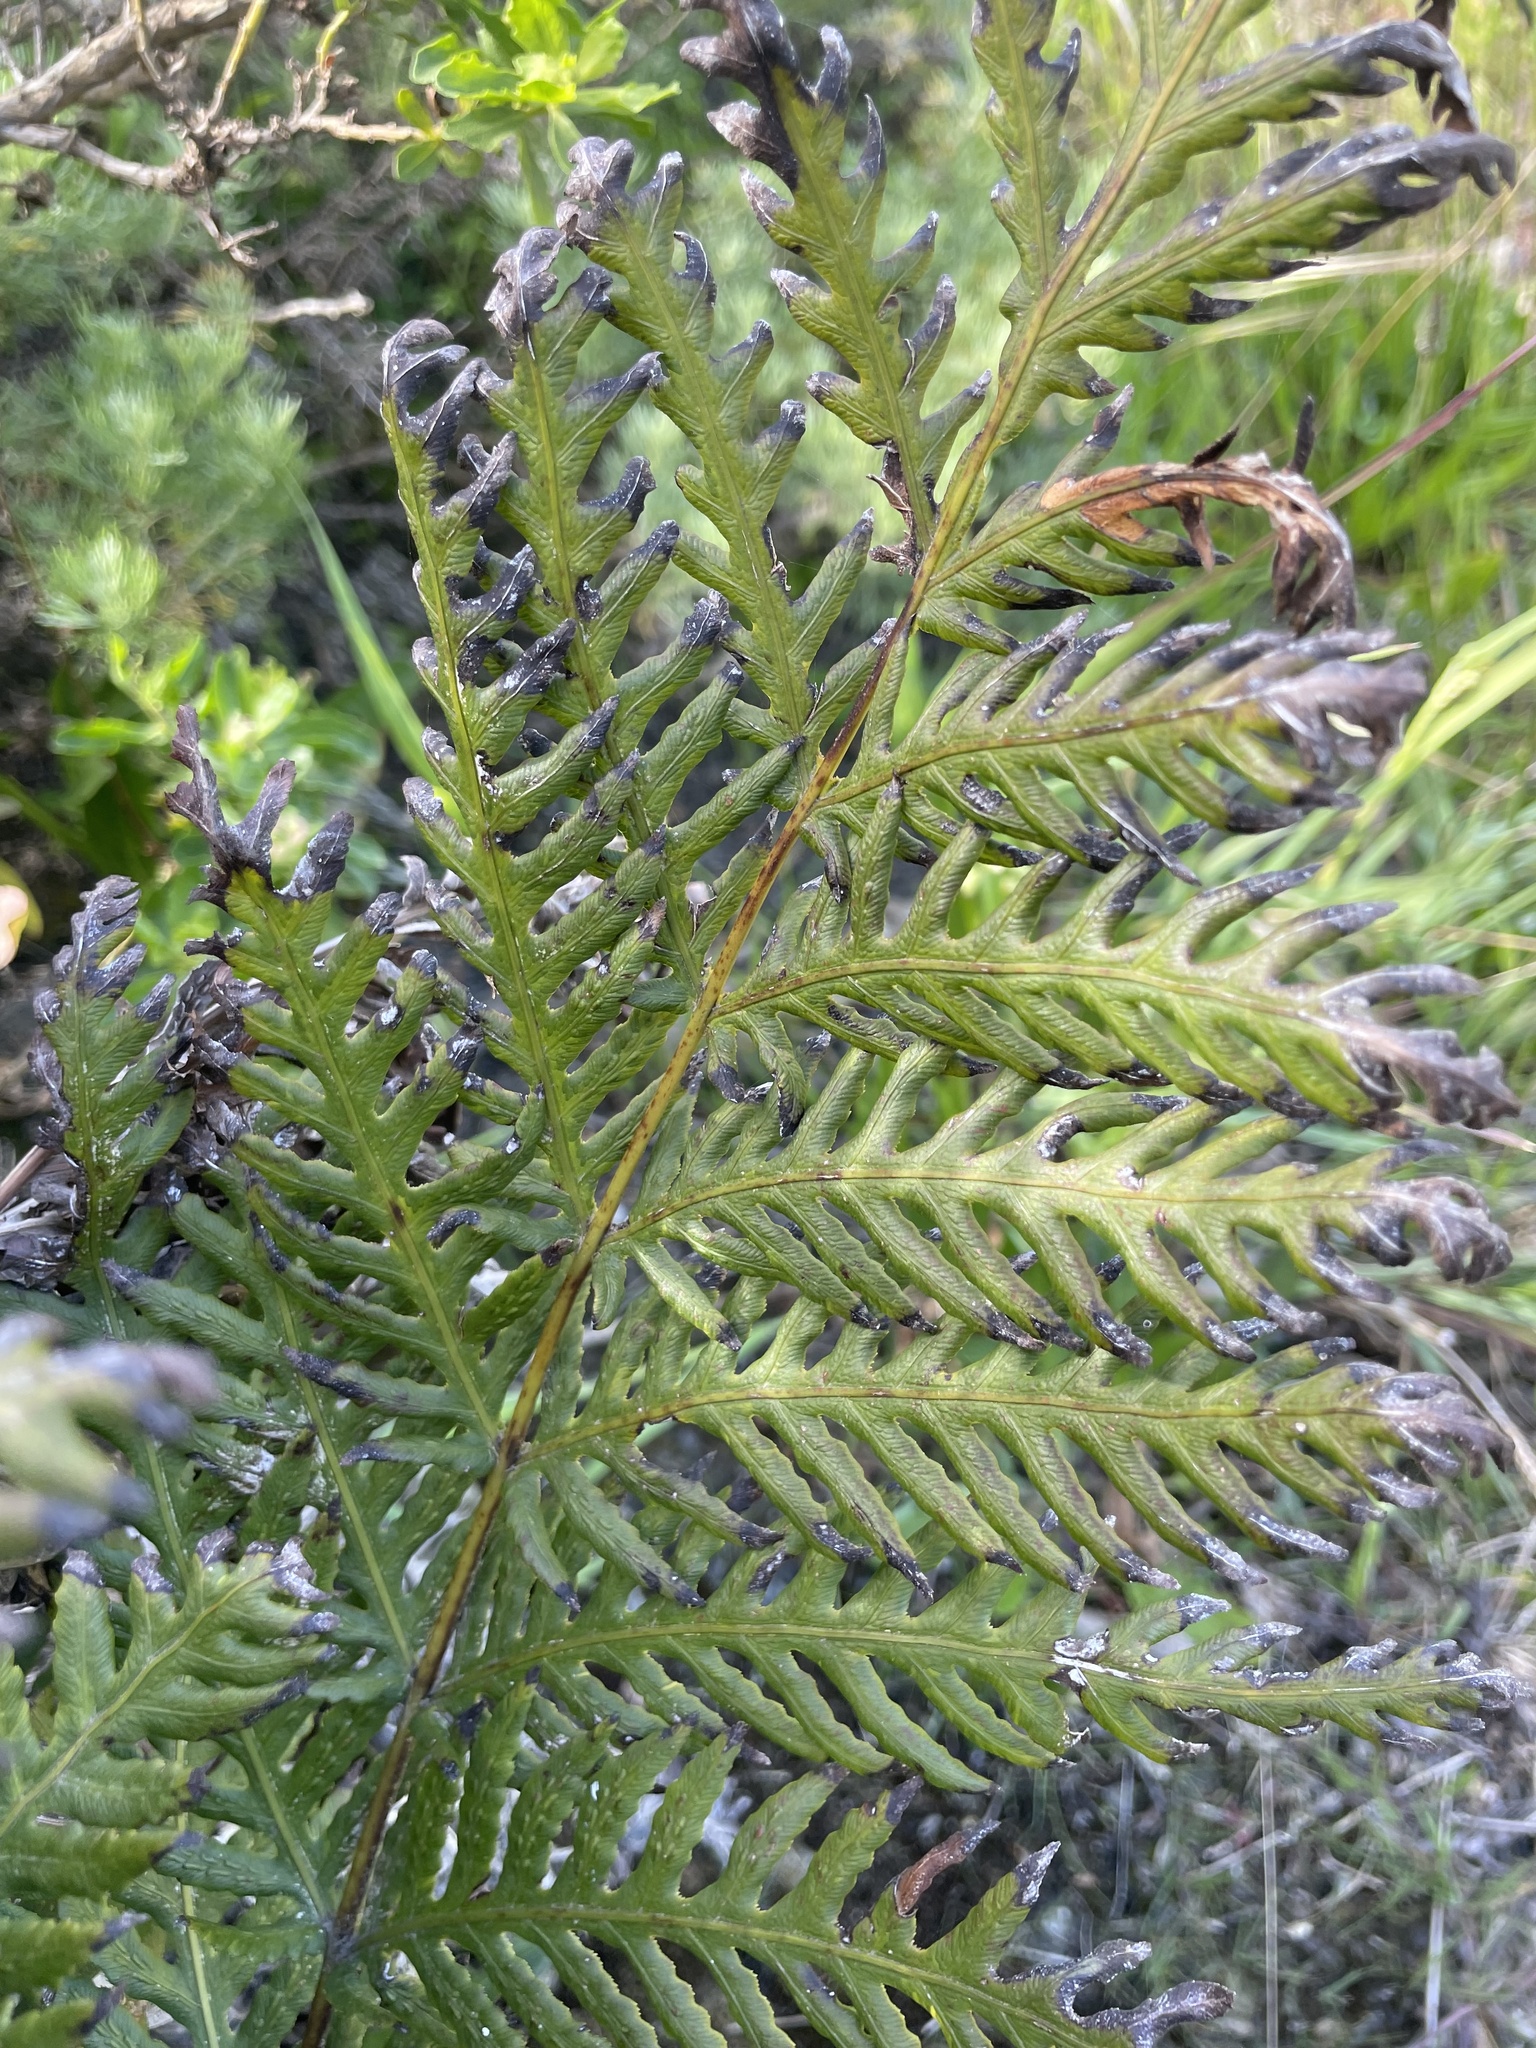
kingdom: Plantae
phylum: Tracheophyta
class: Polypodiopsida
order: Polypodiales
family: Blechnaceae
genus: Woodwardia
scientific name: Woodwardia fimbriata
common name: Giant chain fern
